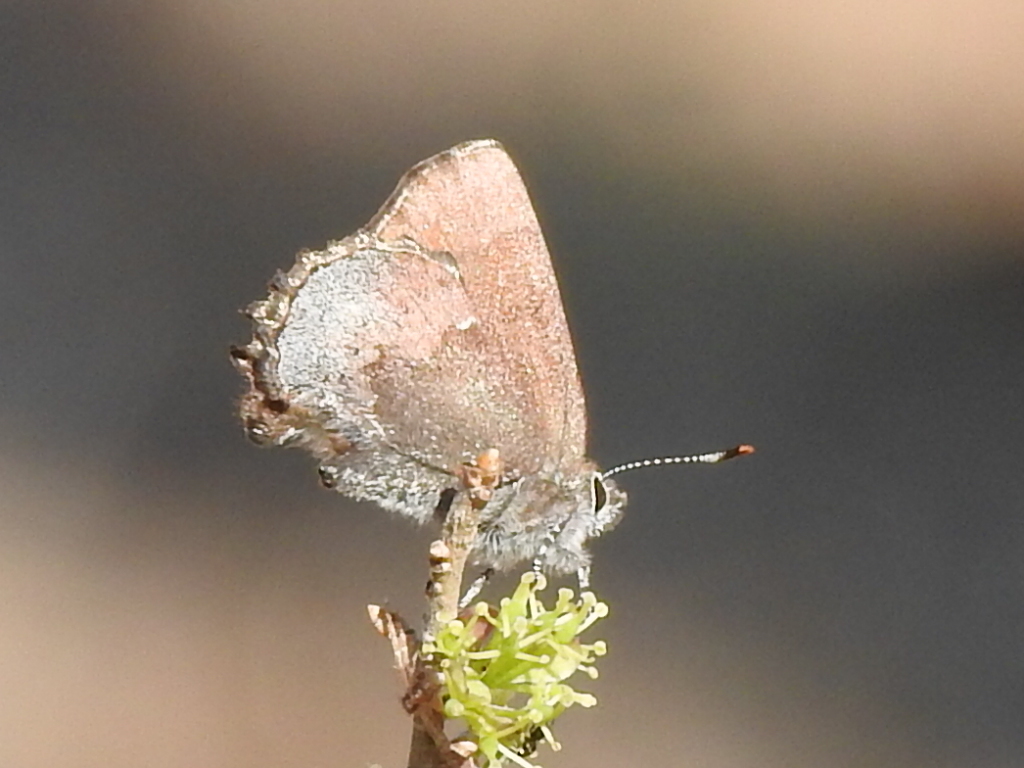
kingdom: Animalia
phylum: Arthropoda
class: Insecta
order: Lepidoptera
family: Lycaenidae
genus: Incisalia
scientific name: Incisalia henrici
